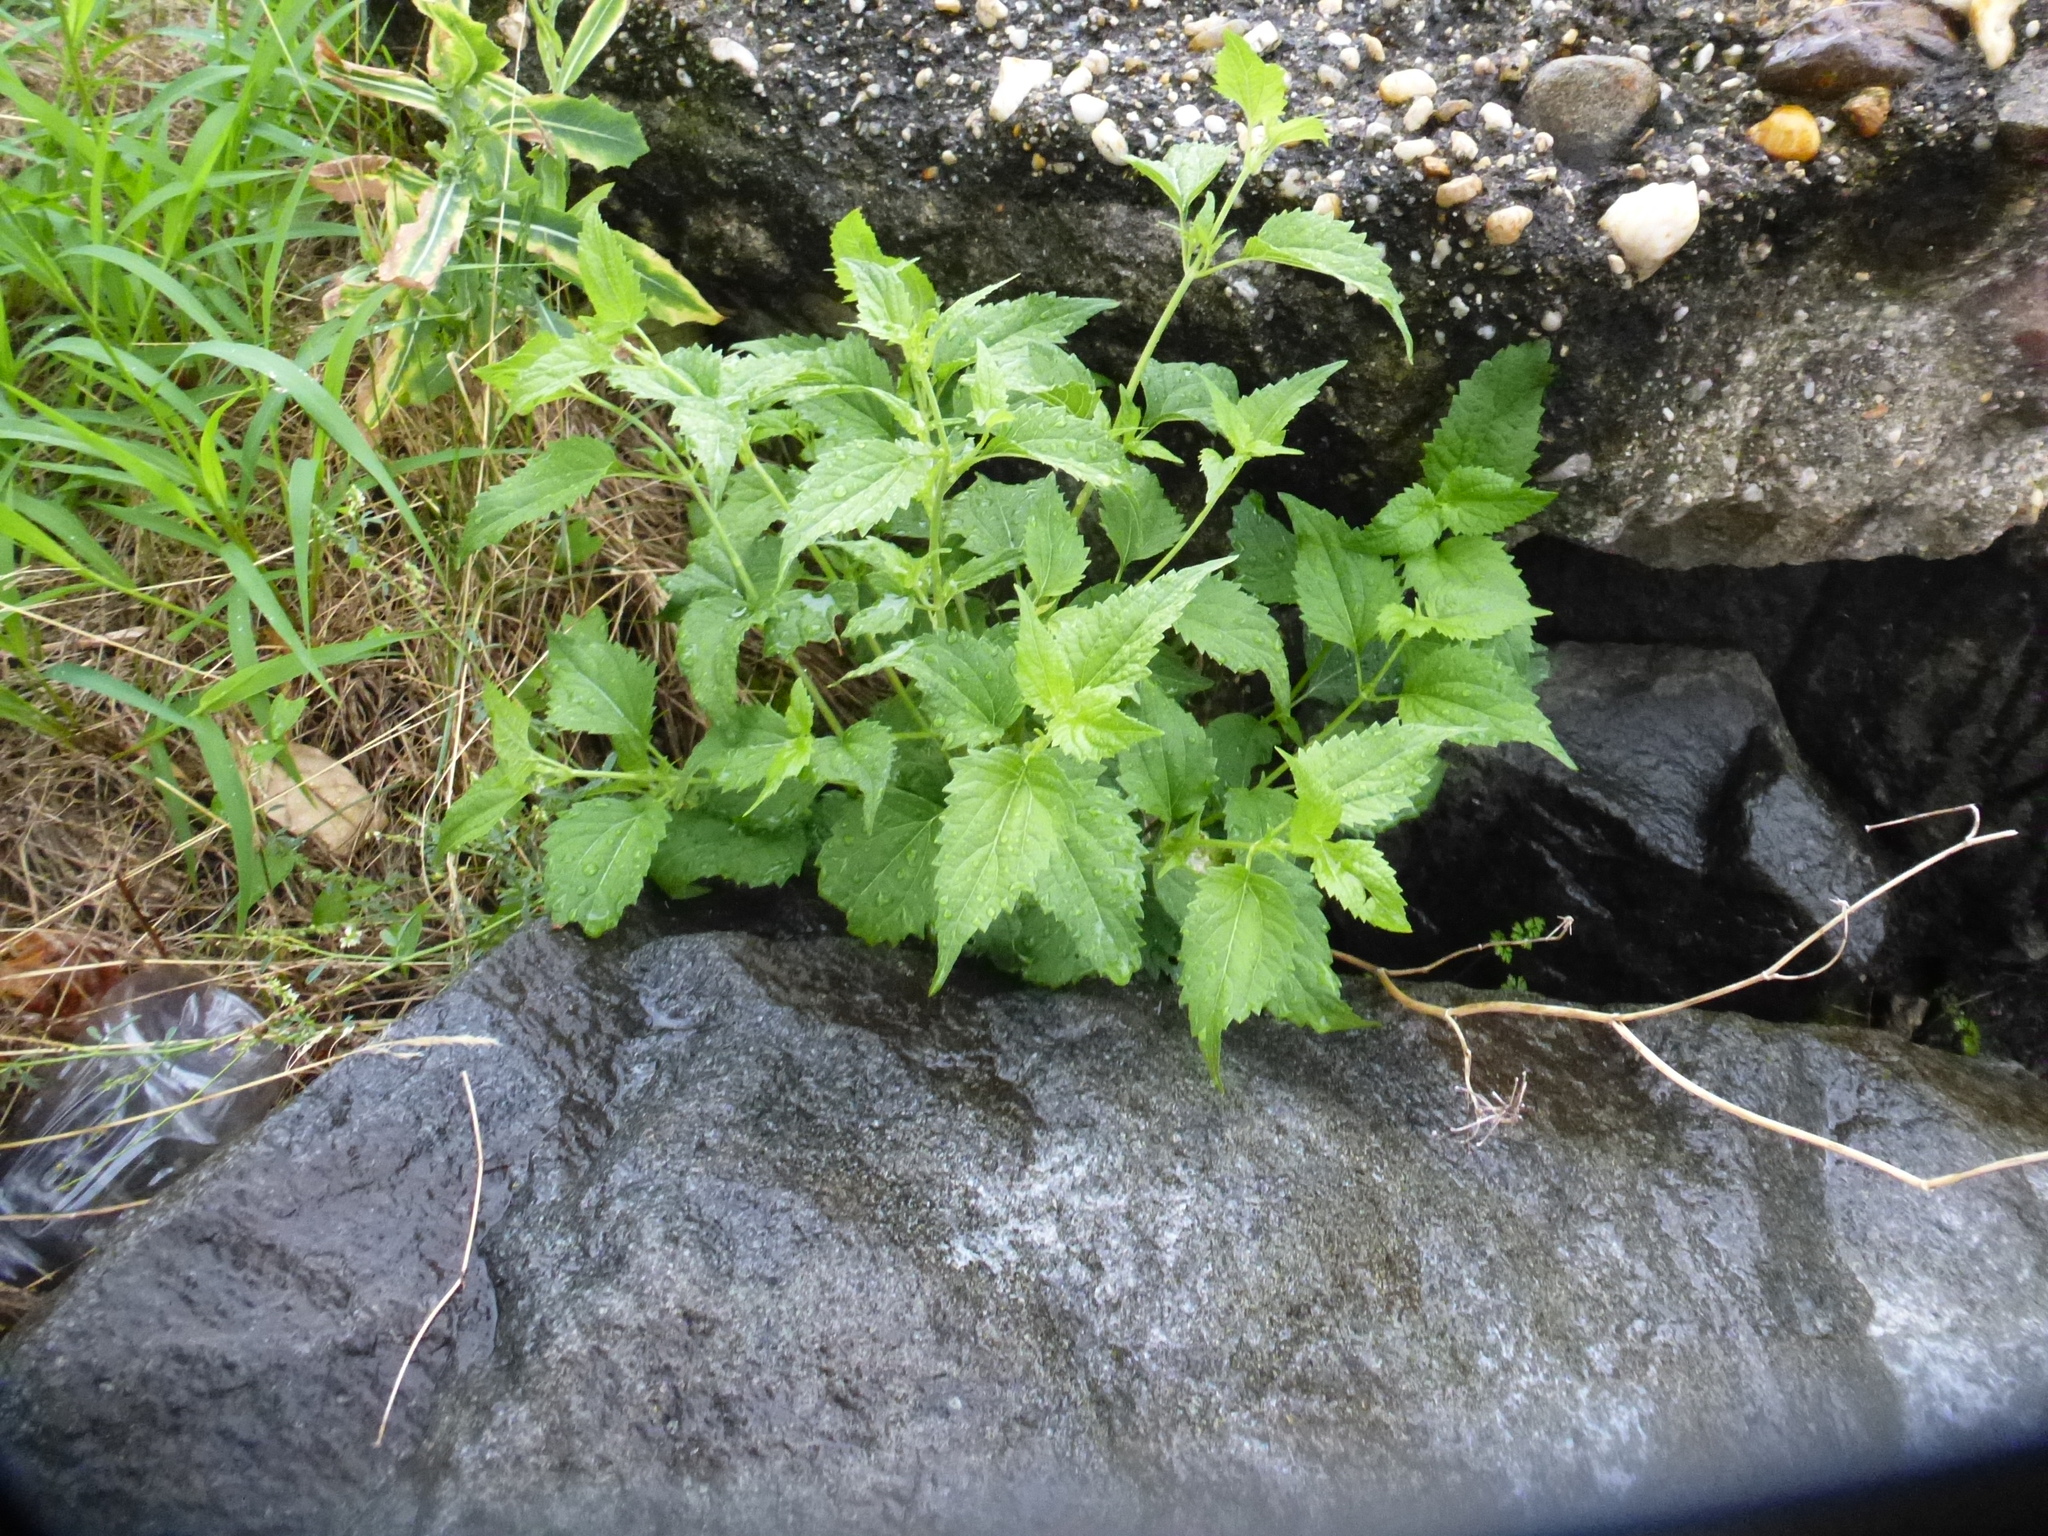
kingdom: Plantae
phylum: Tracheophyta
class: Magnoliopsida
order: Asterales
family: Asteraceae
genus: Ageratina
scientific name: Ageratina altissima
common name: White snakeroot
